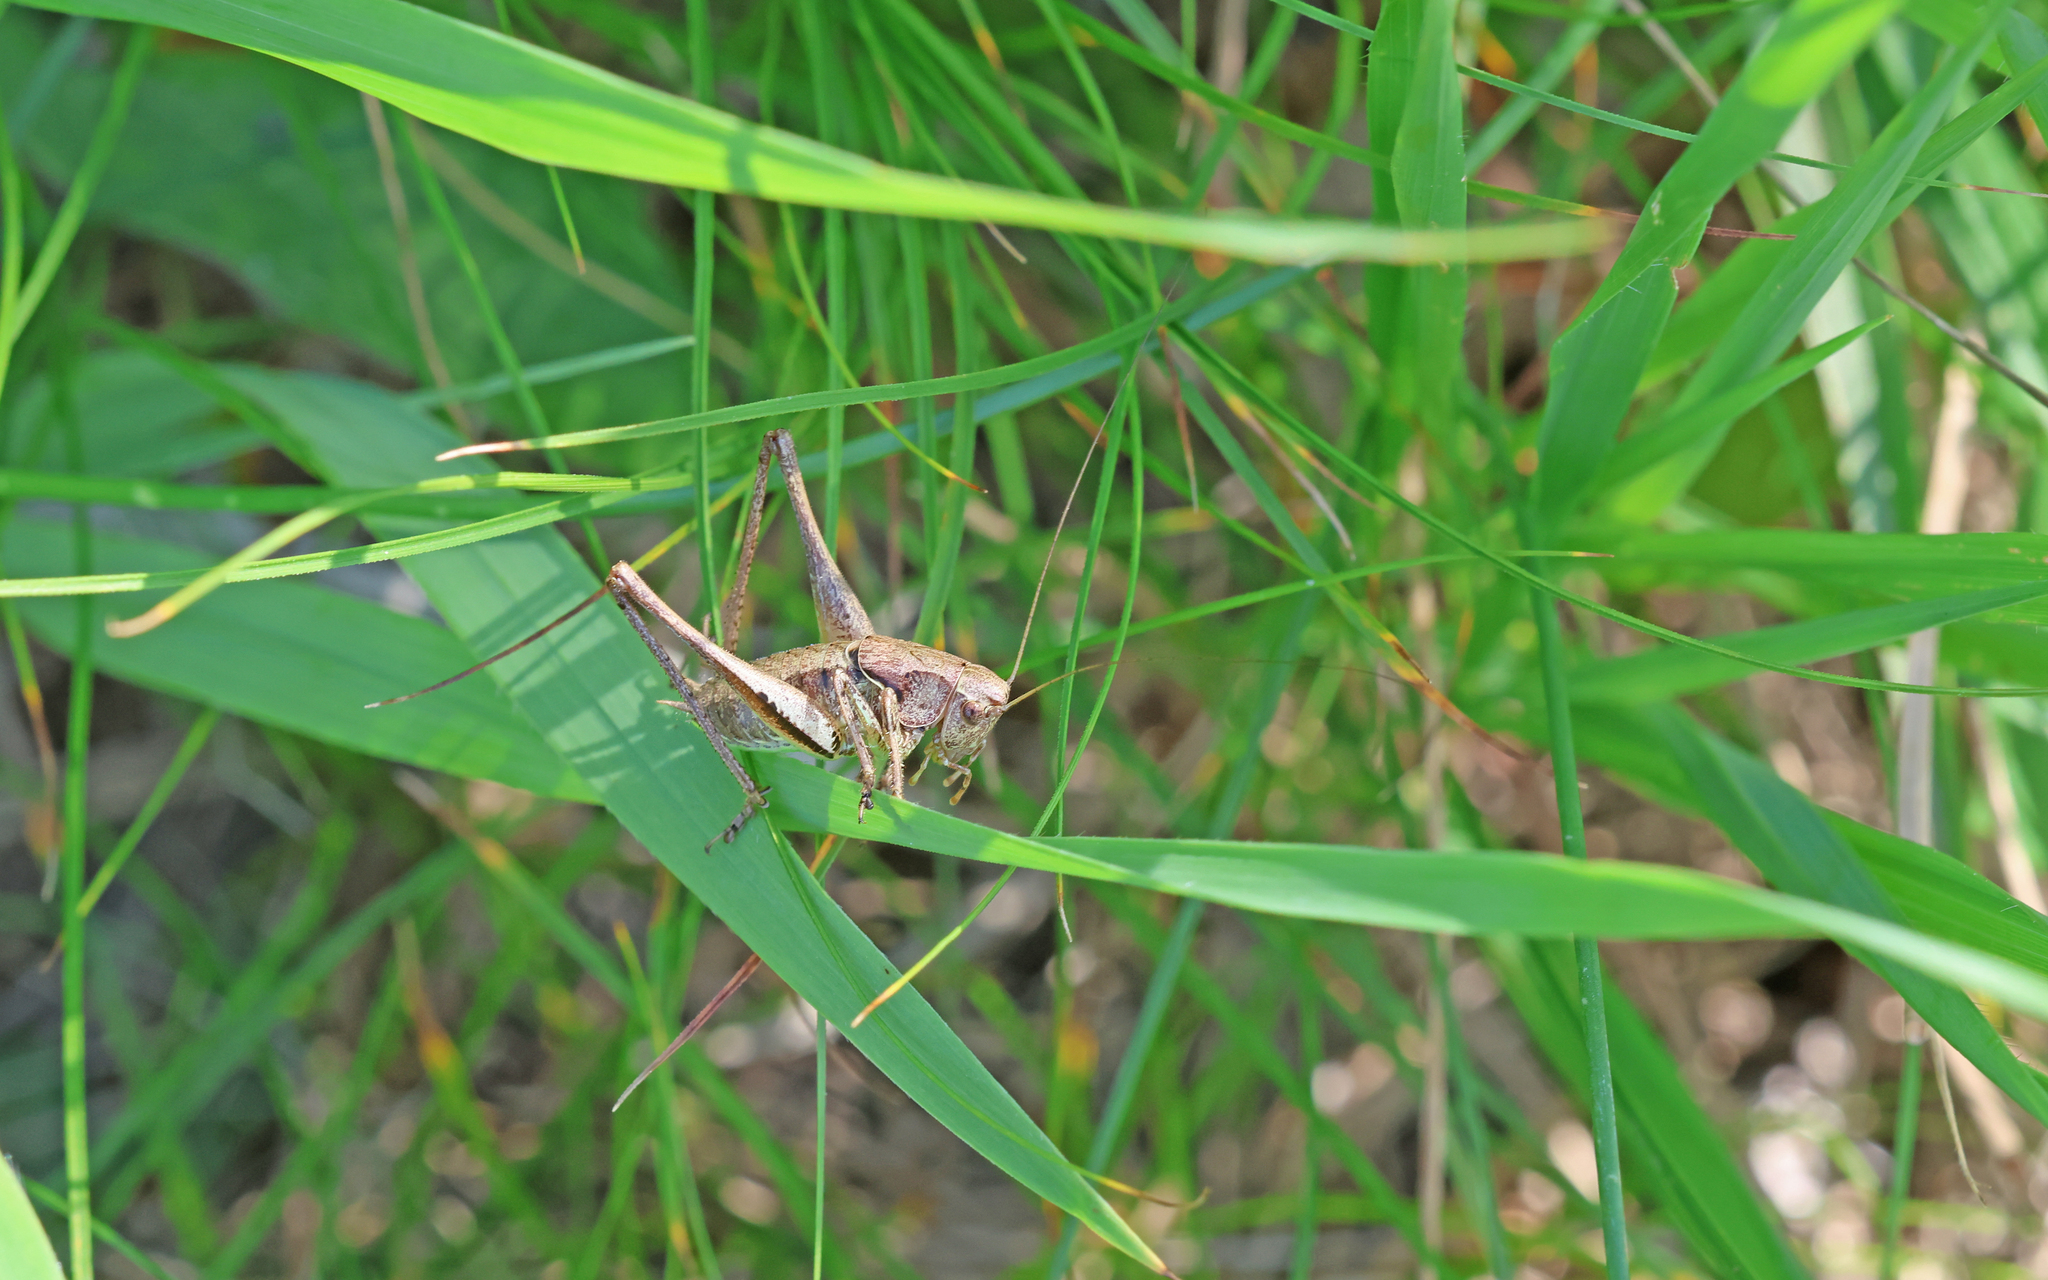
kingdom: Animalia
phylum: Arthropoda
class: Insecta
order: Orthoptera
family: Tettigoniidae
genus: Pholidoptera
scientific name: Pholidoptera griseoaptera
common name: Dark bush-cricket
